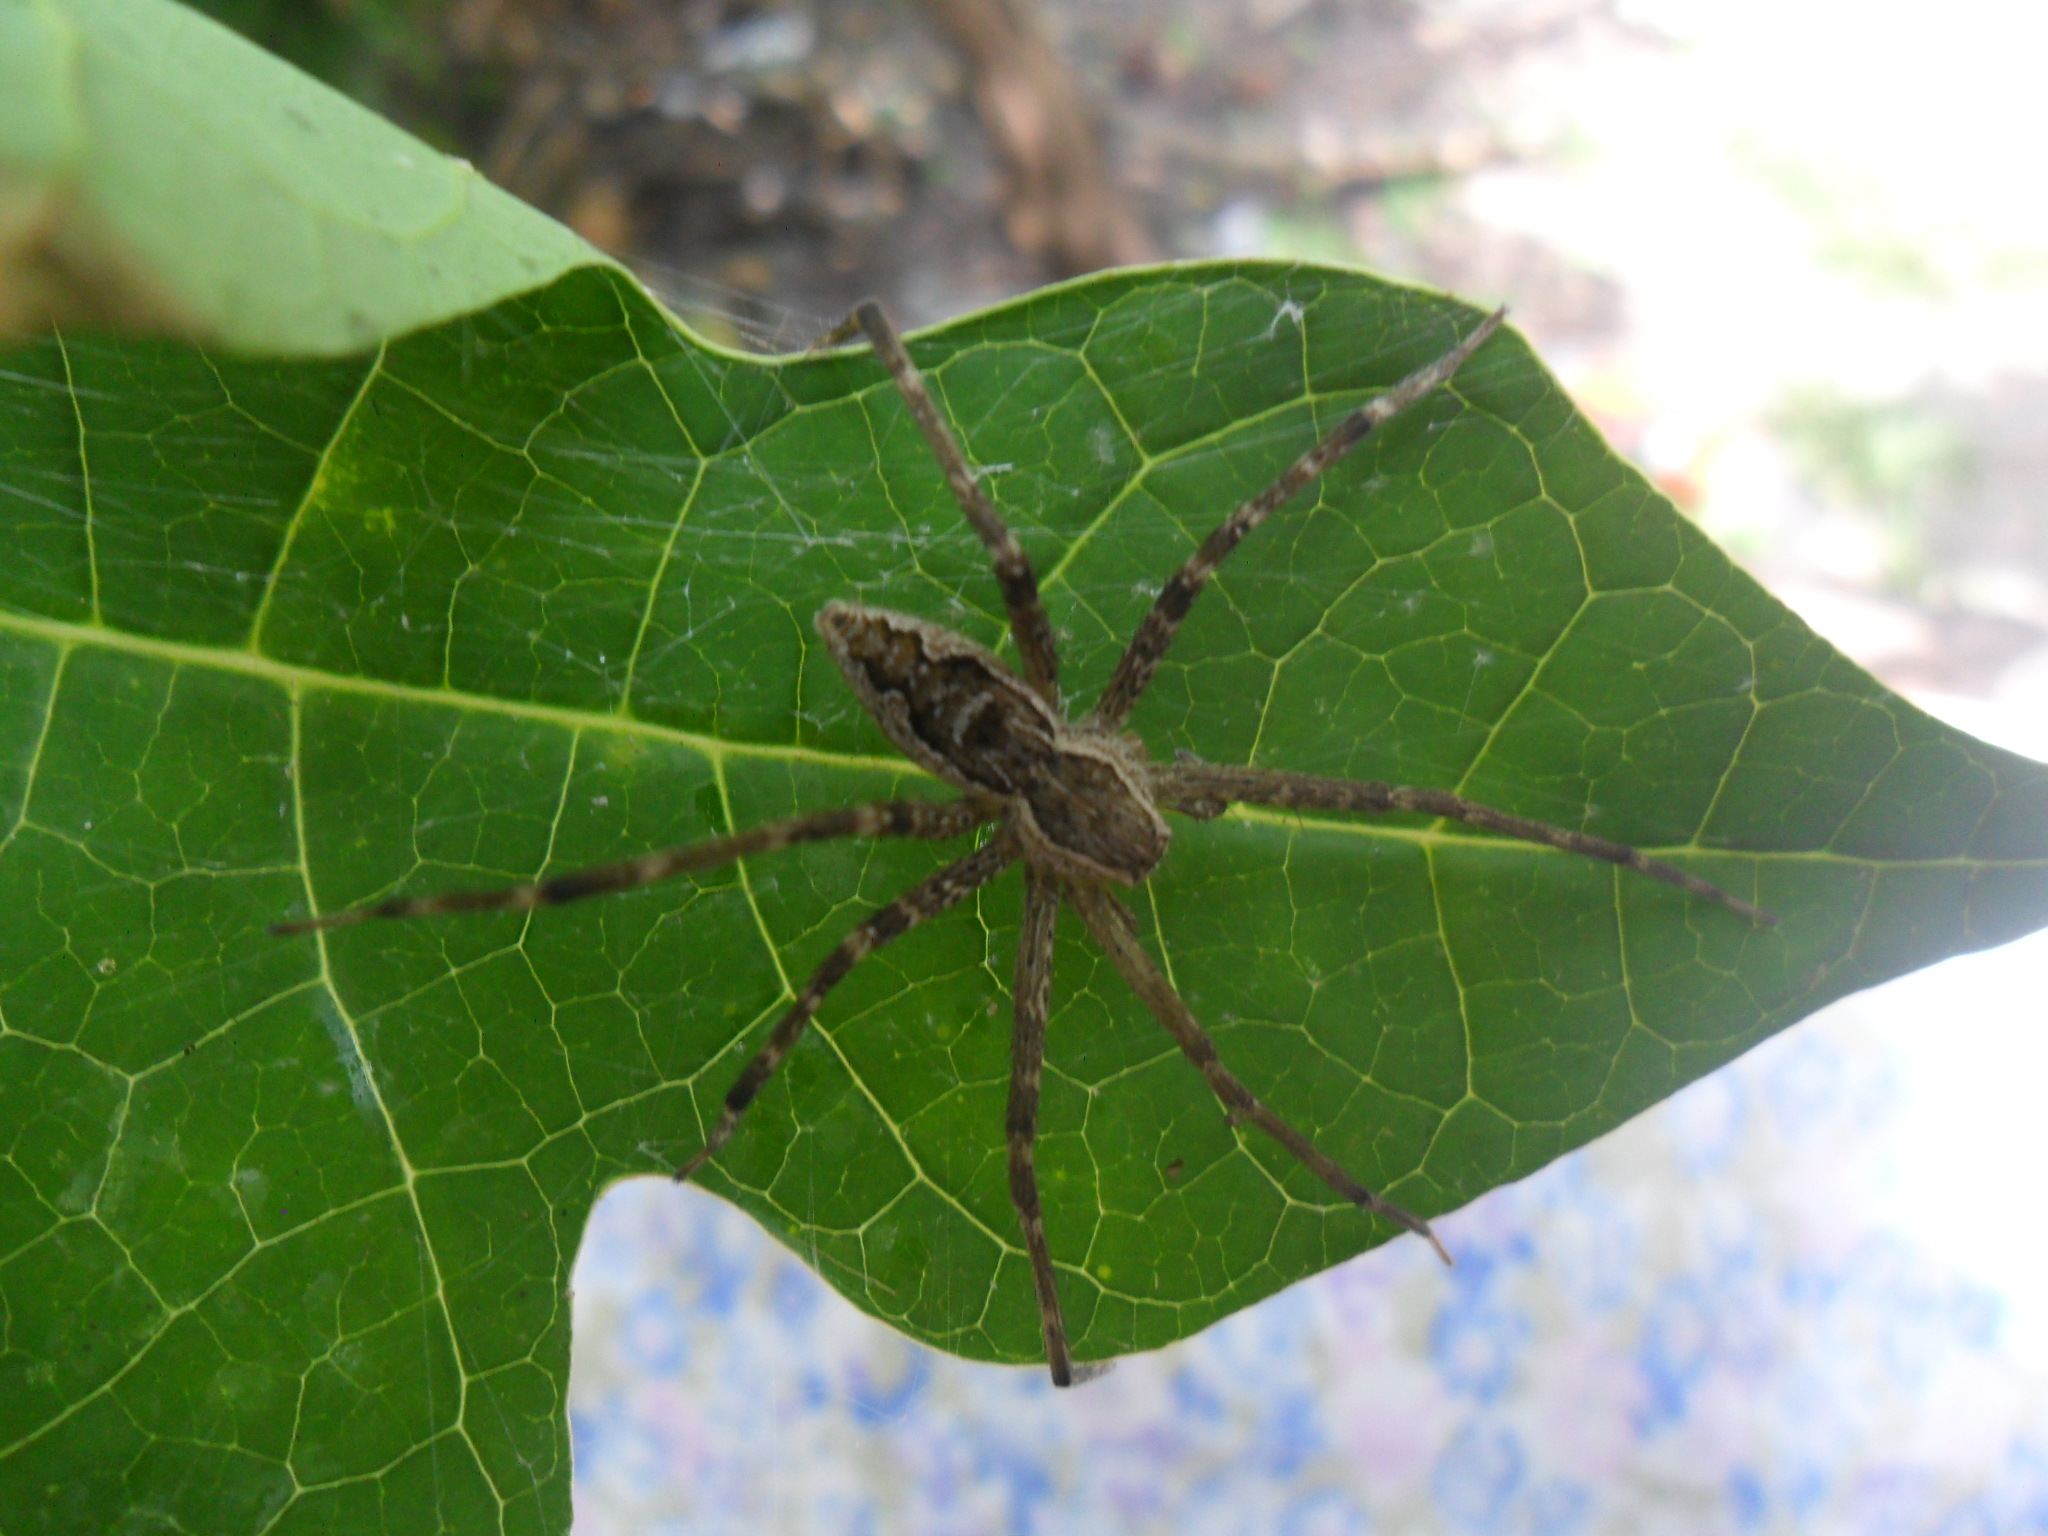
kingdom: Animalia
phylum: Arthropoda
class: Arachnida
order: Araneae
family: Pisauridae
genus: Tinus
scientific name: Tinus peregrinus
